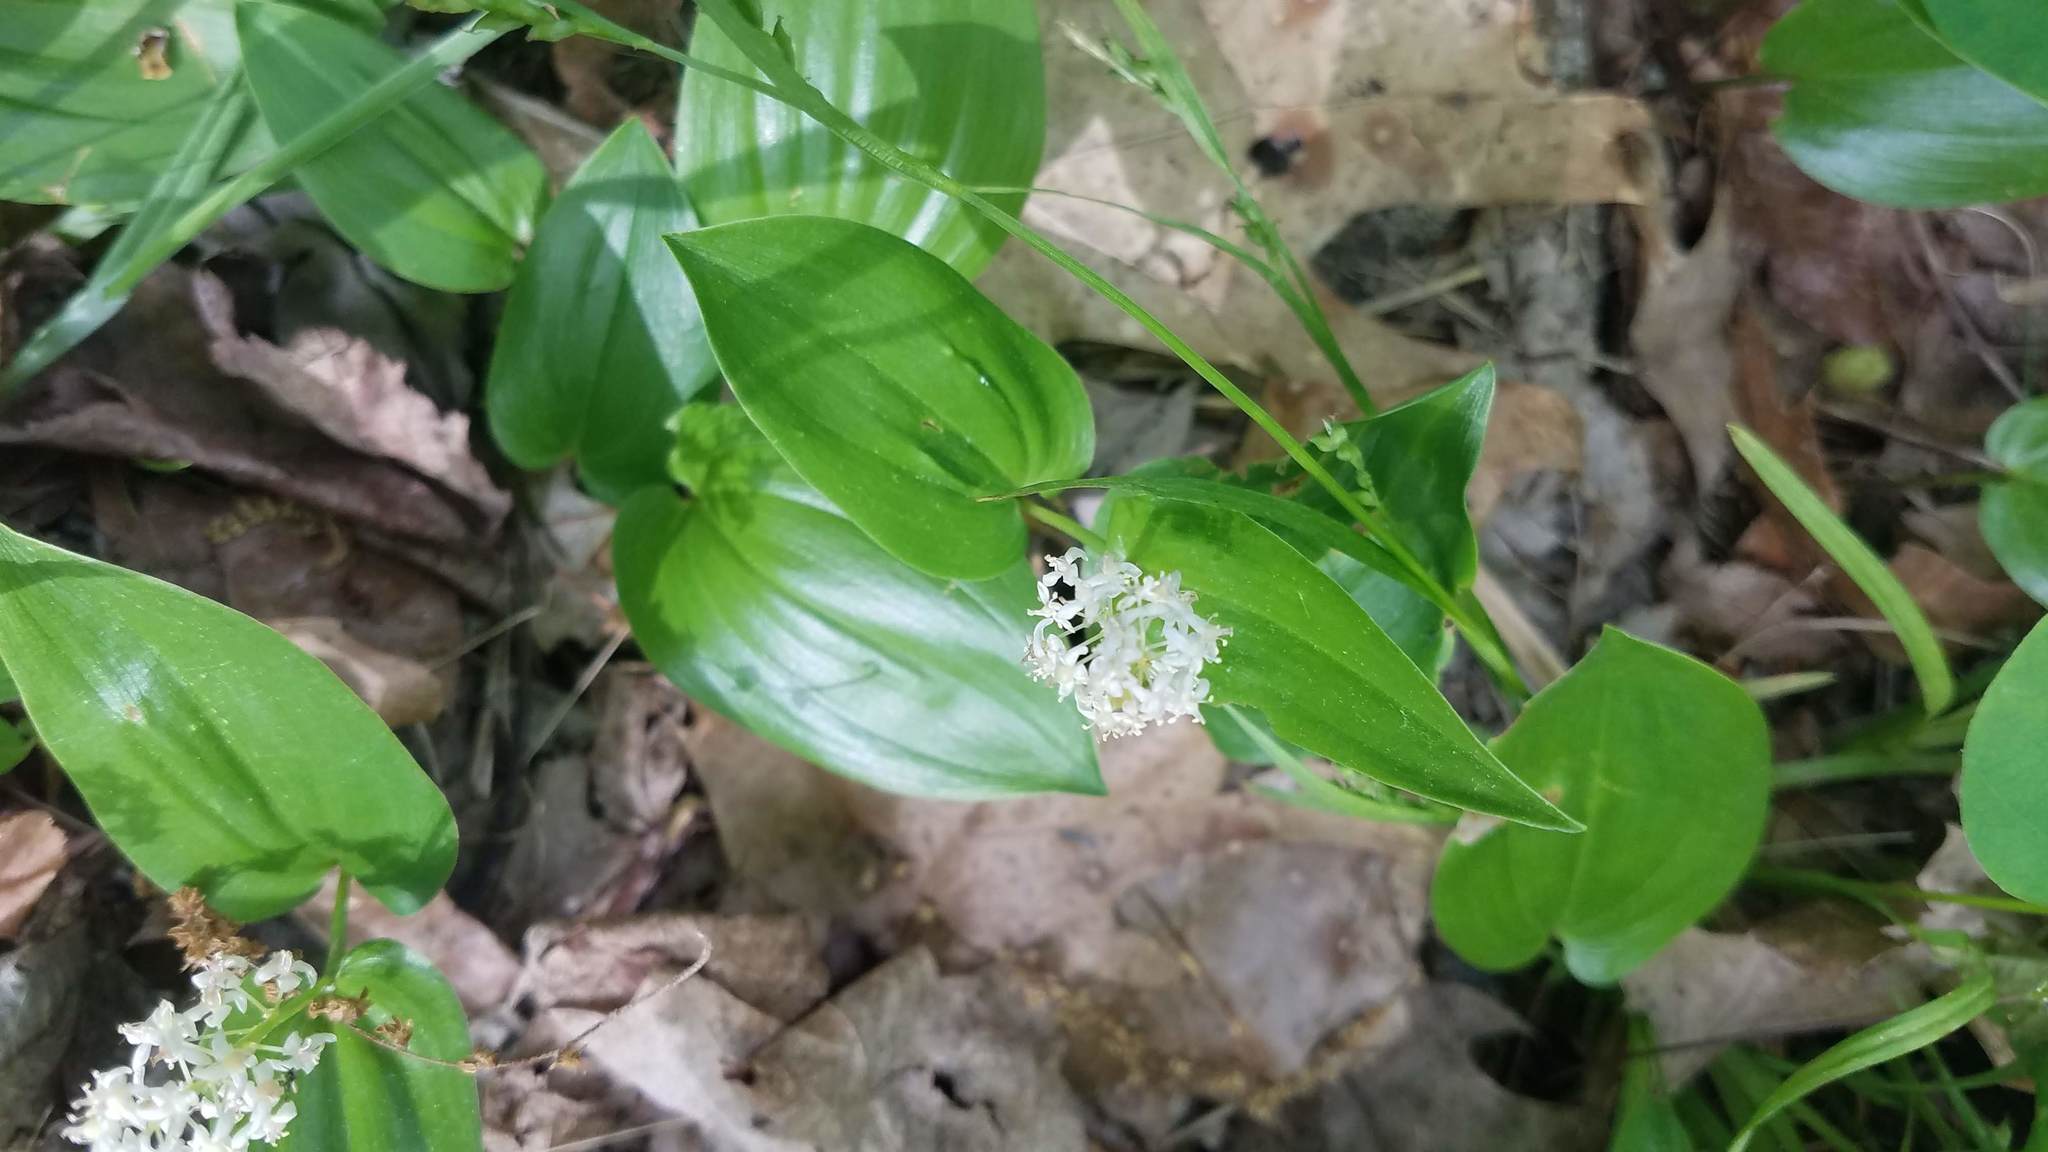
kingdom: Plantae
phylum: Tracheophyta
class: Liliopsida
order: Asparagales
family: Asparagaceae
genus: Maianthemum
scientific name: Maianthemum canadense
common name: False lily-of-the-valley
